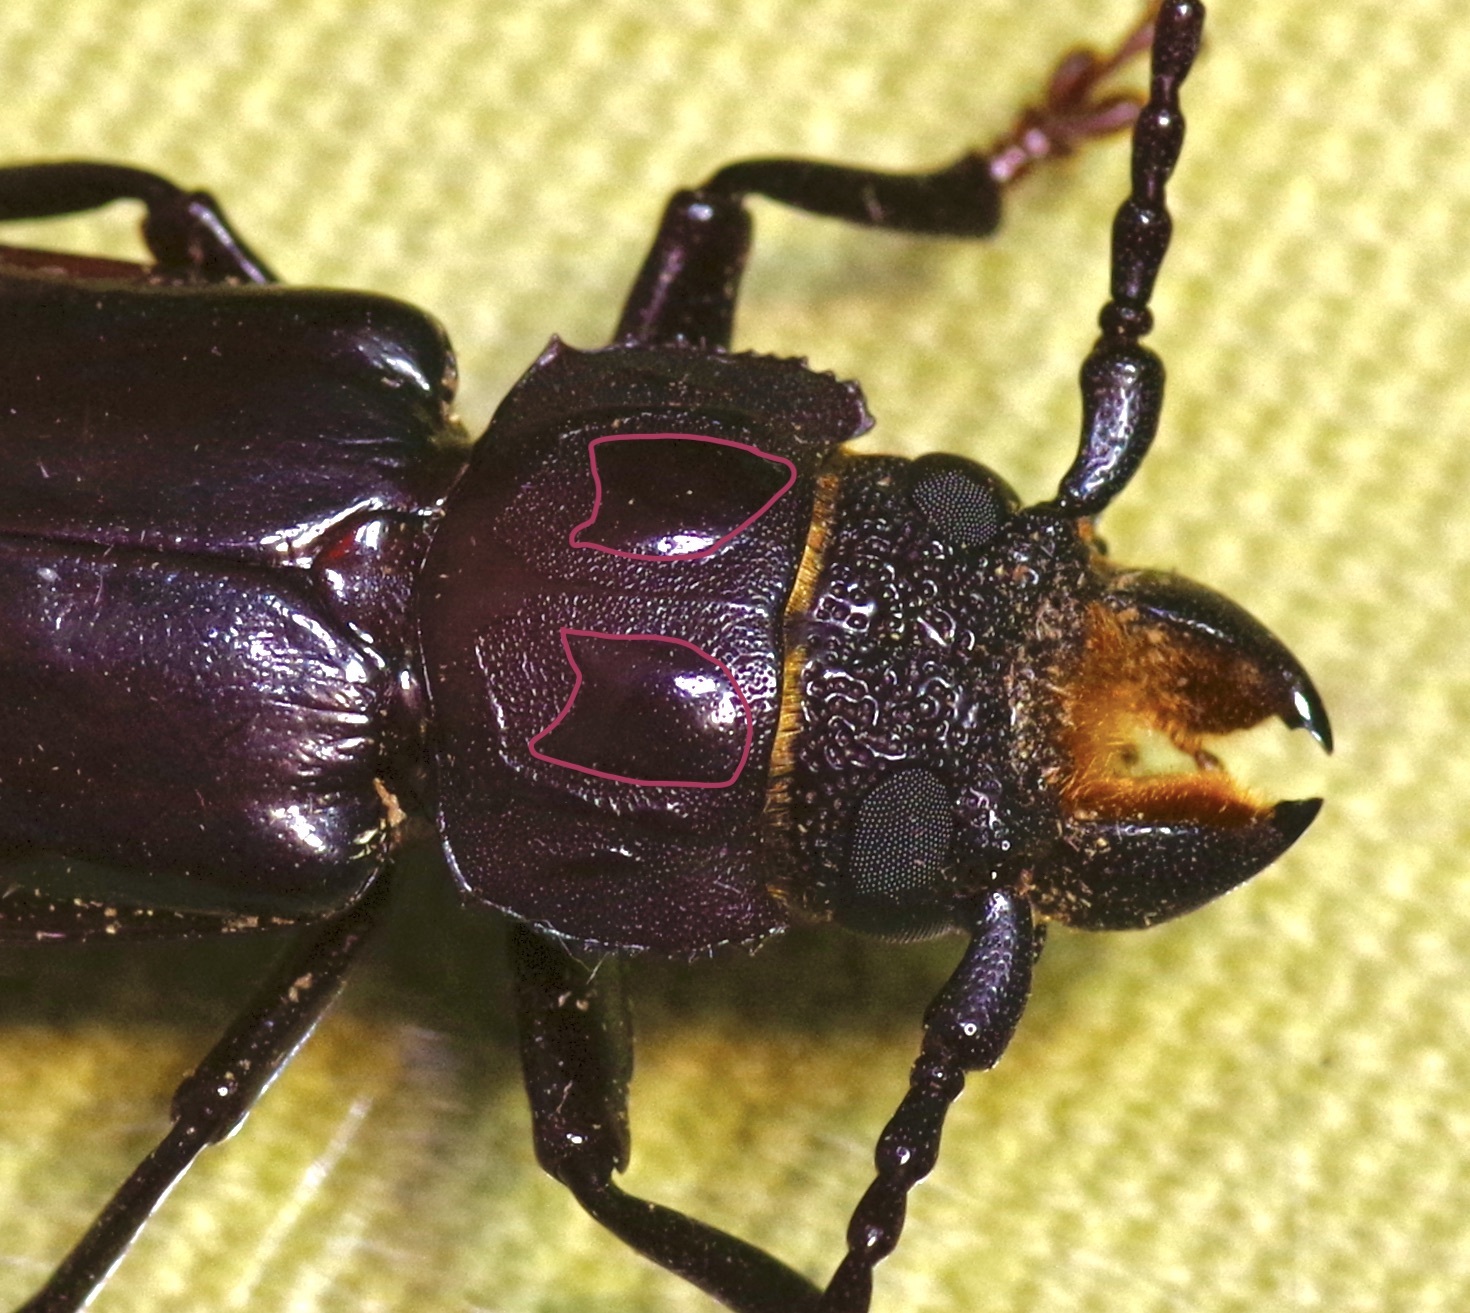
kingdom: Animalia
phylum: Arthropoda
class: Insecta
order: Coleoptera
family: Cerambycidae
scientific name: Cerambycidae
